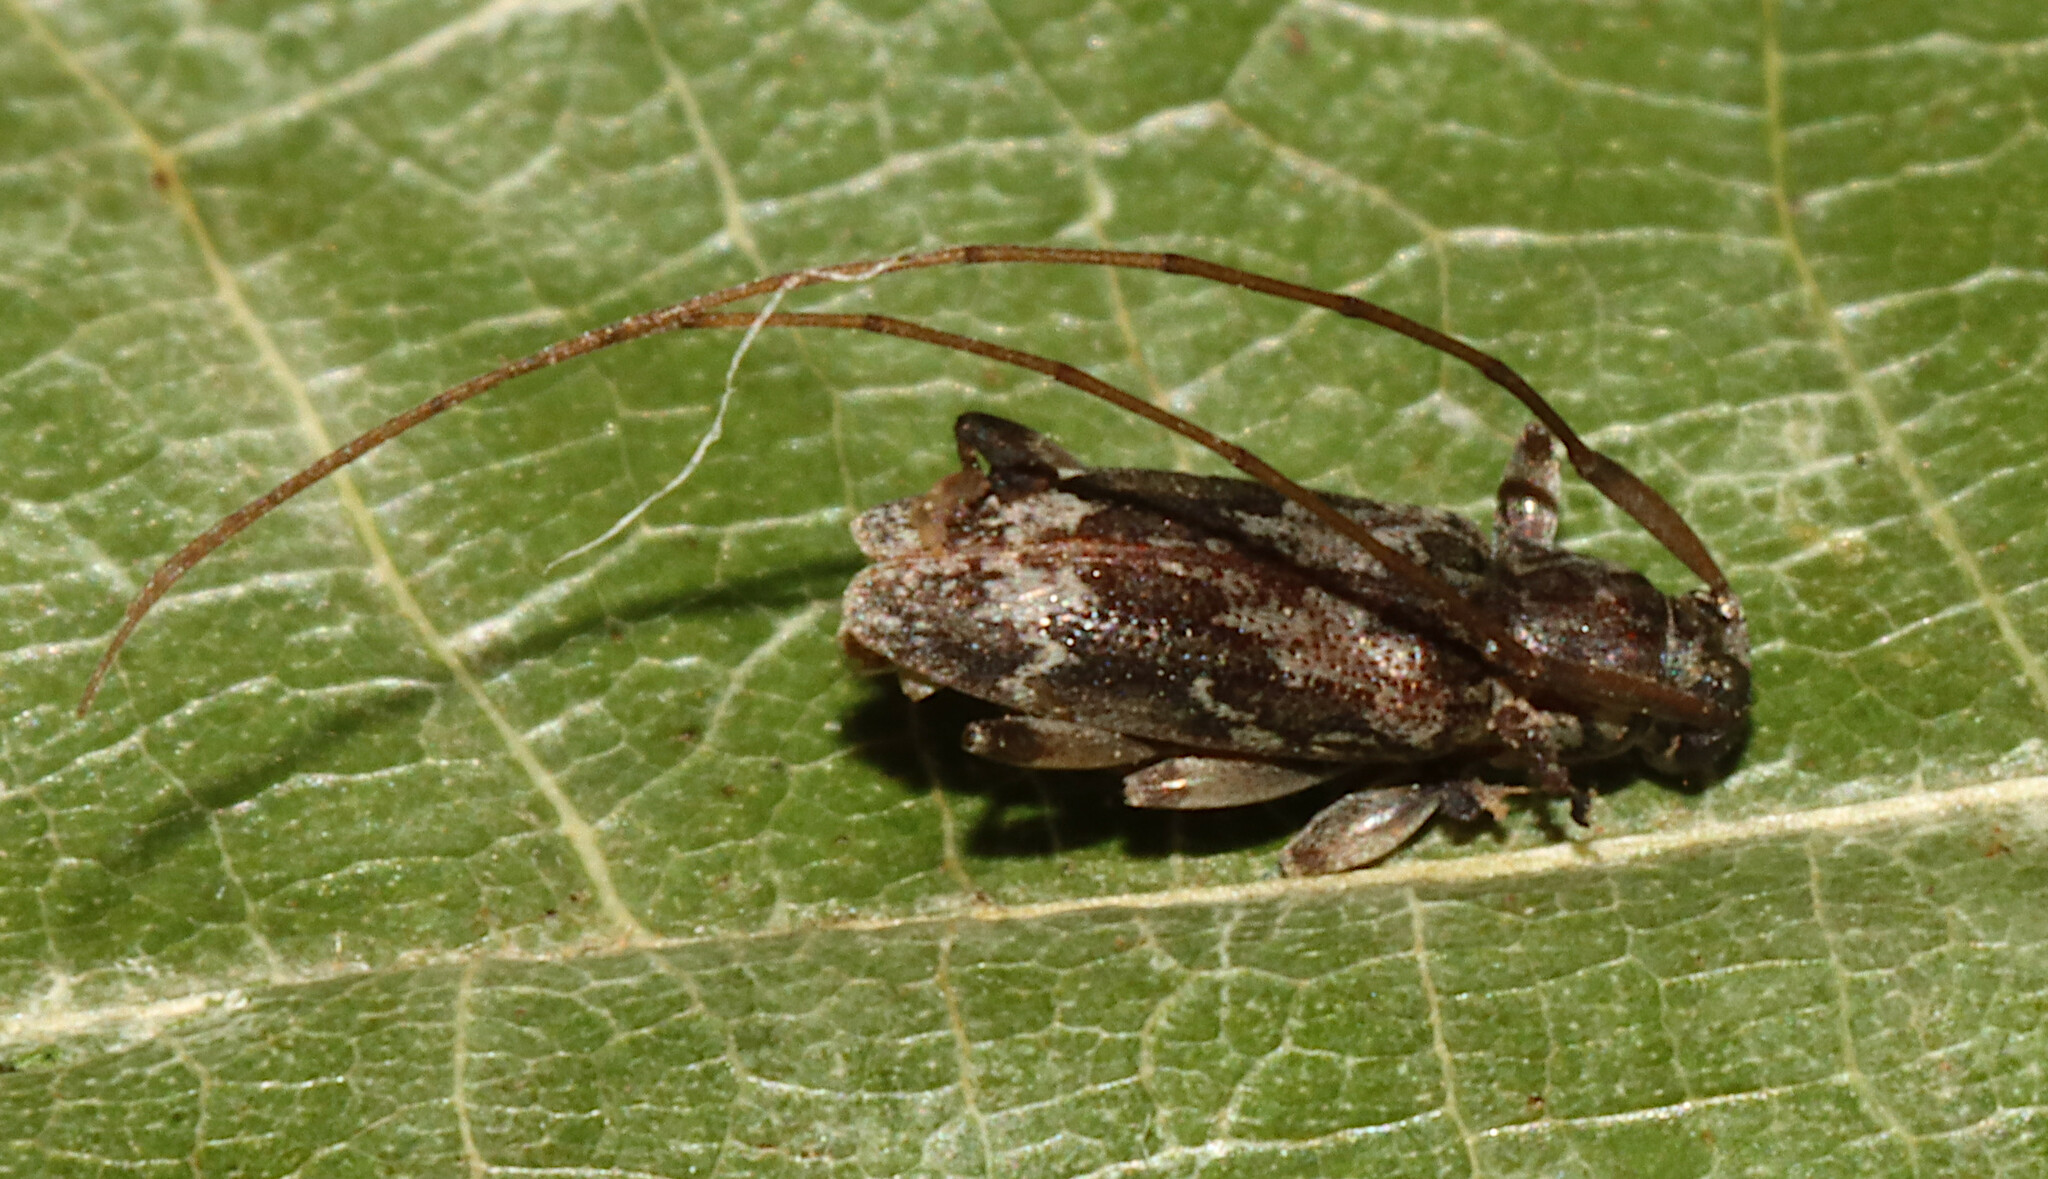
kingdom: Animalia
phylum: Arthropoda
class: Insecta
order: Coleoptera
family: Cerambycidae
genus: Lepturges
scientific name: Lepturges confluens
